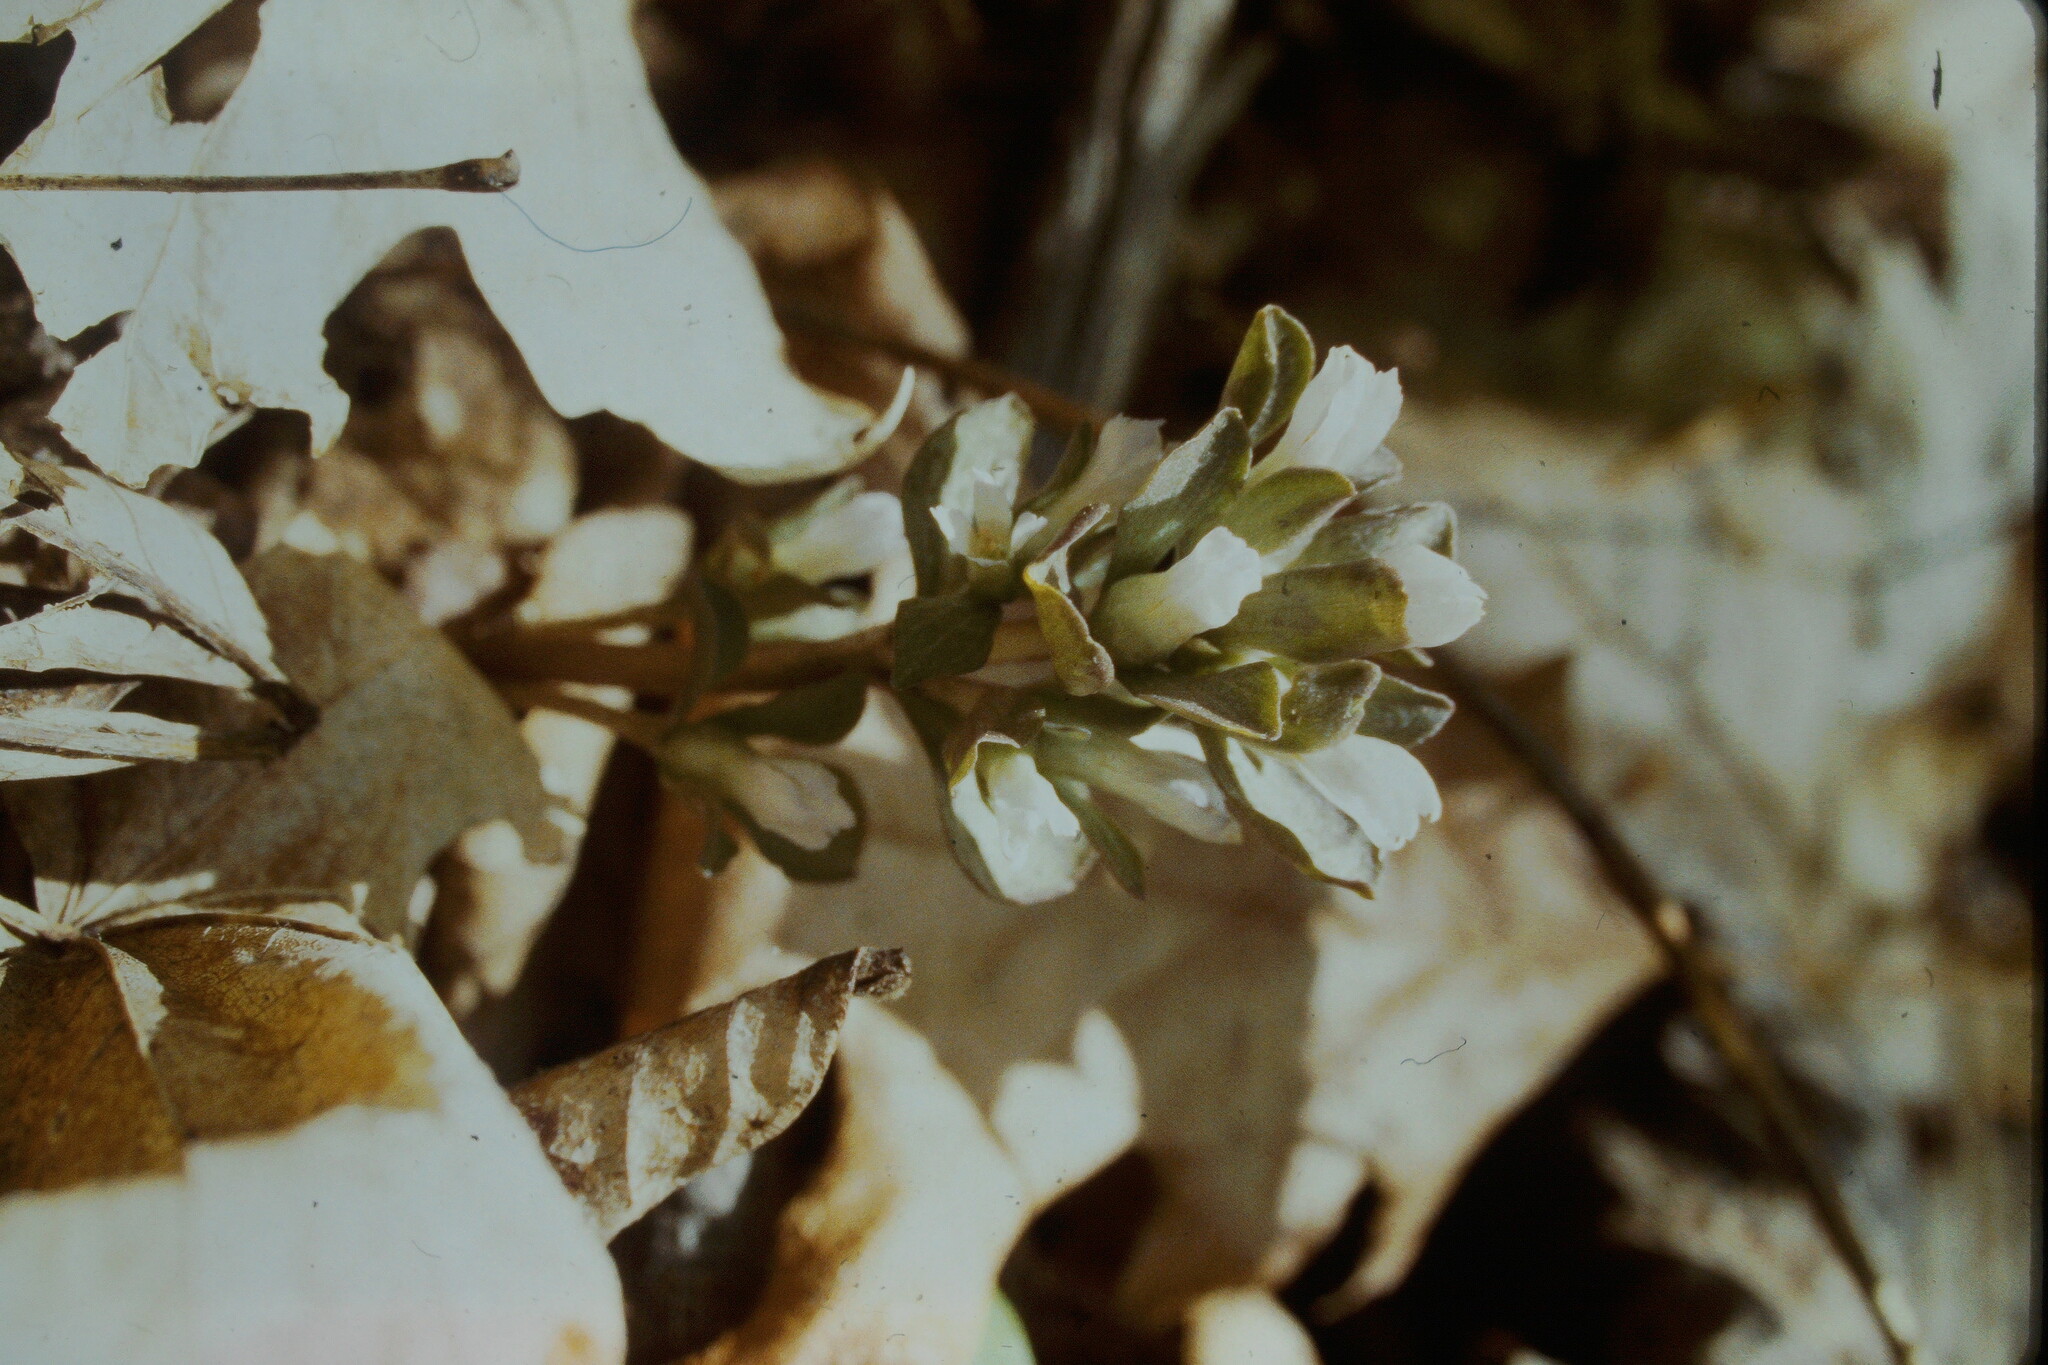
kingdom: Plantae
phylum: Tracheophyta
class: Magnoliopsida
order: Gentianales
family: Gentianaceae
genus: Obolaria
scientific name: Obolaria virginica
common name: Pennywort
